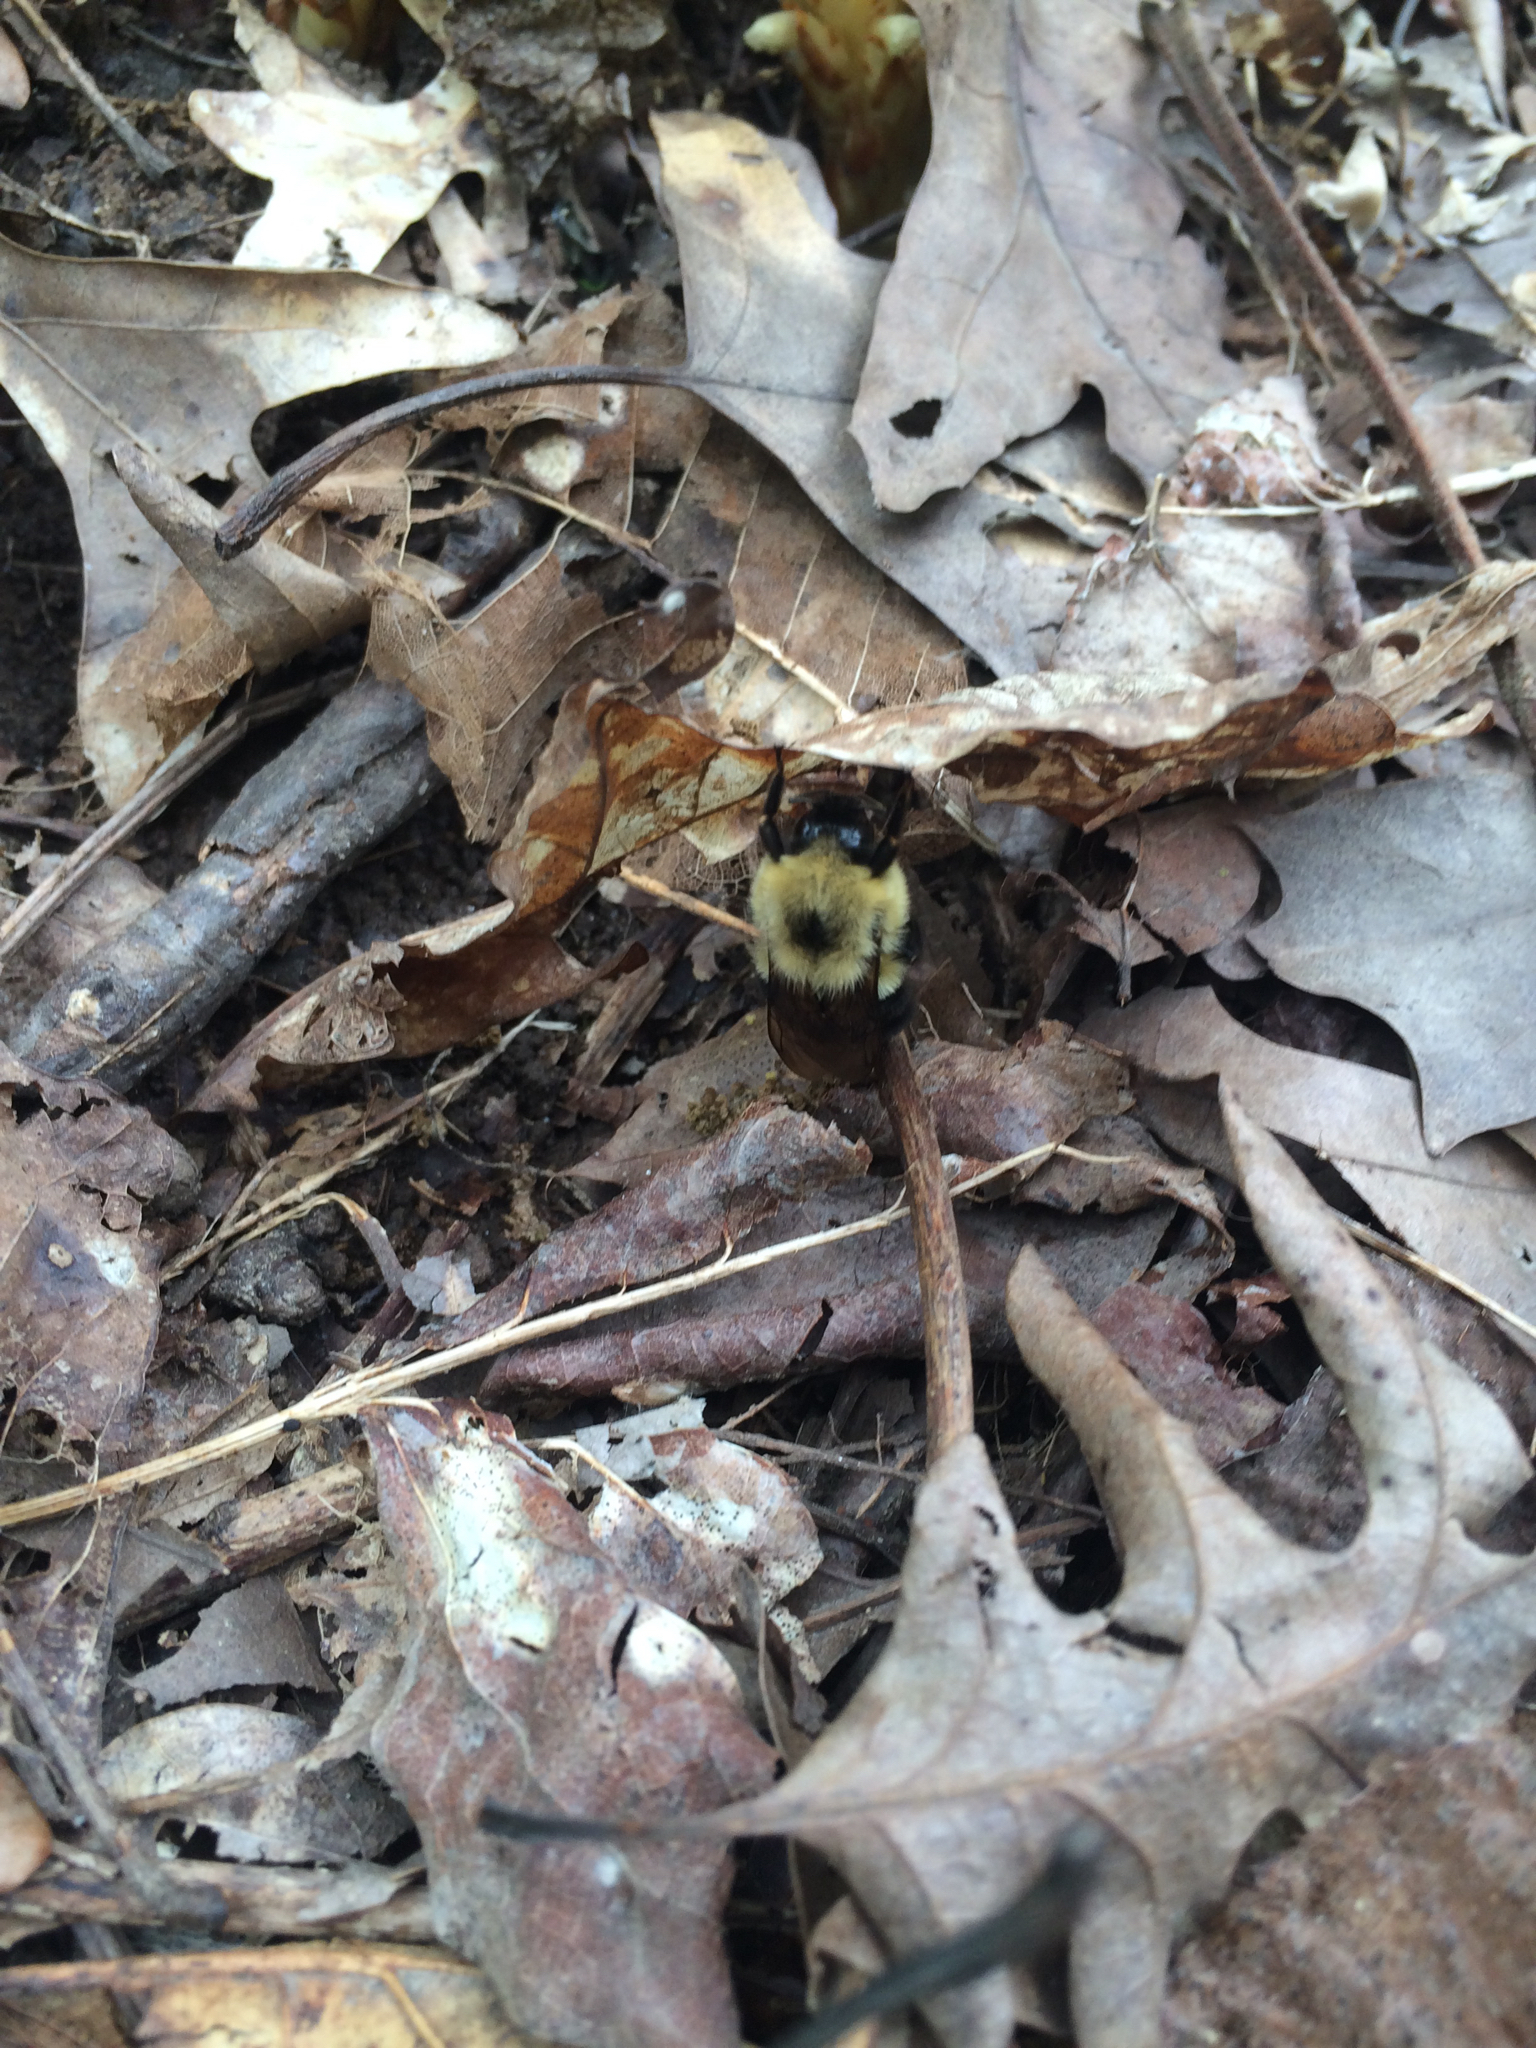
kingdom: Animalia
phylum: Arthropoda
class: Insecta
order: Hymenoptera
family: Apidae
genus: Bombus
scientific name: Bombus bimaculatus
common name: Two-spotted bumble bee
